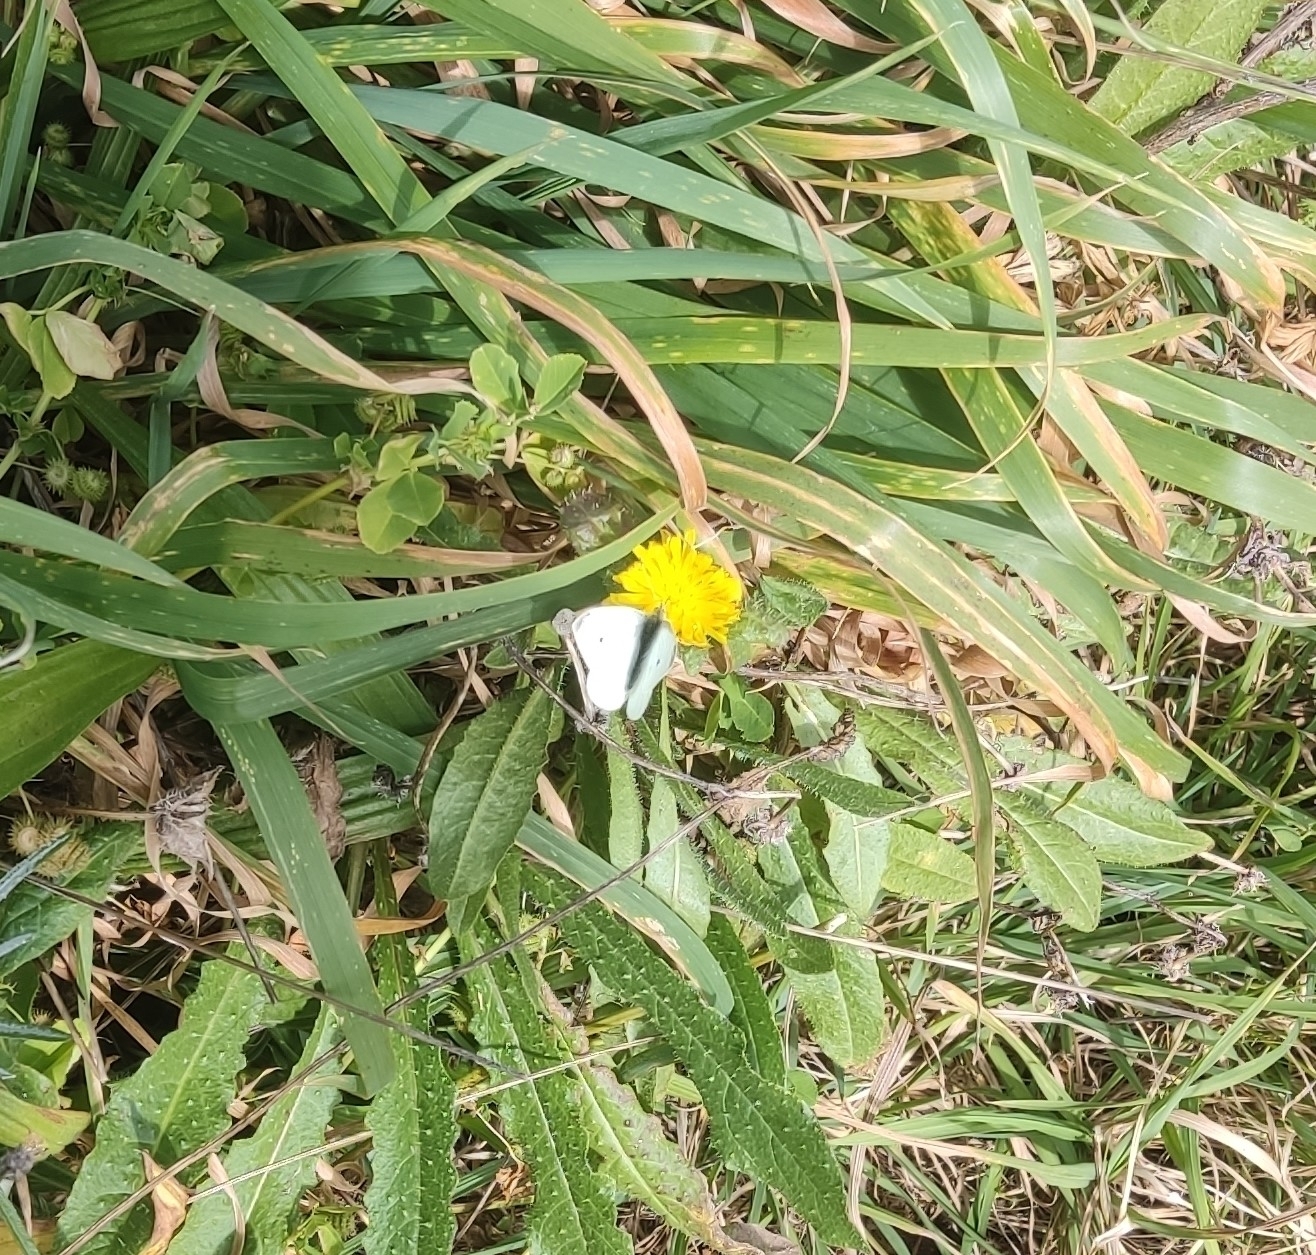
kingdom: Animalia
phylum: Arthropoda
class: Insecta
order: Lepidoptera
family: Pieridae
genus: Pieris
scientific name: Pieris rapae
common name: Small white
